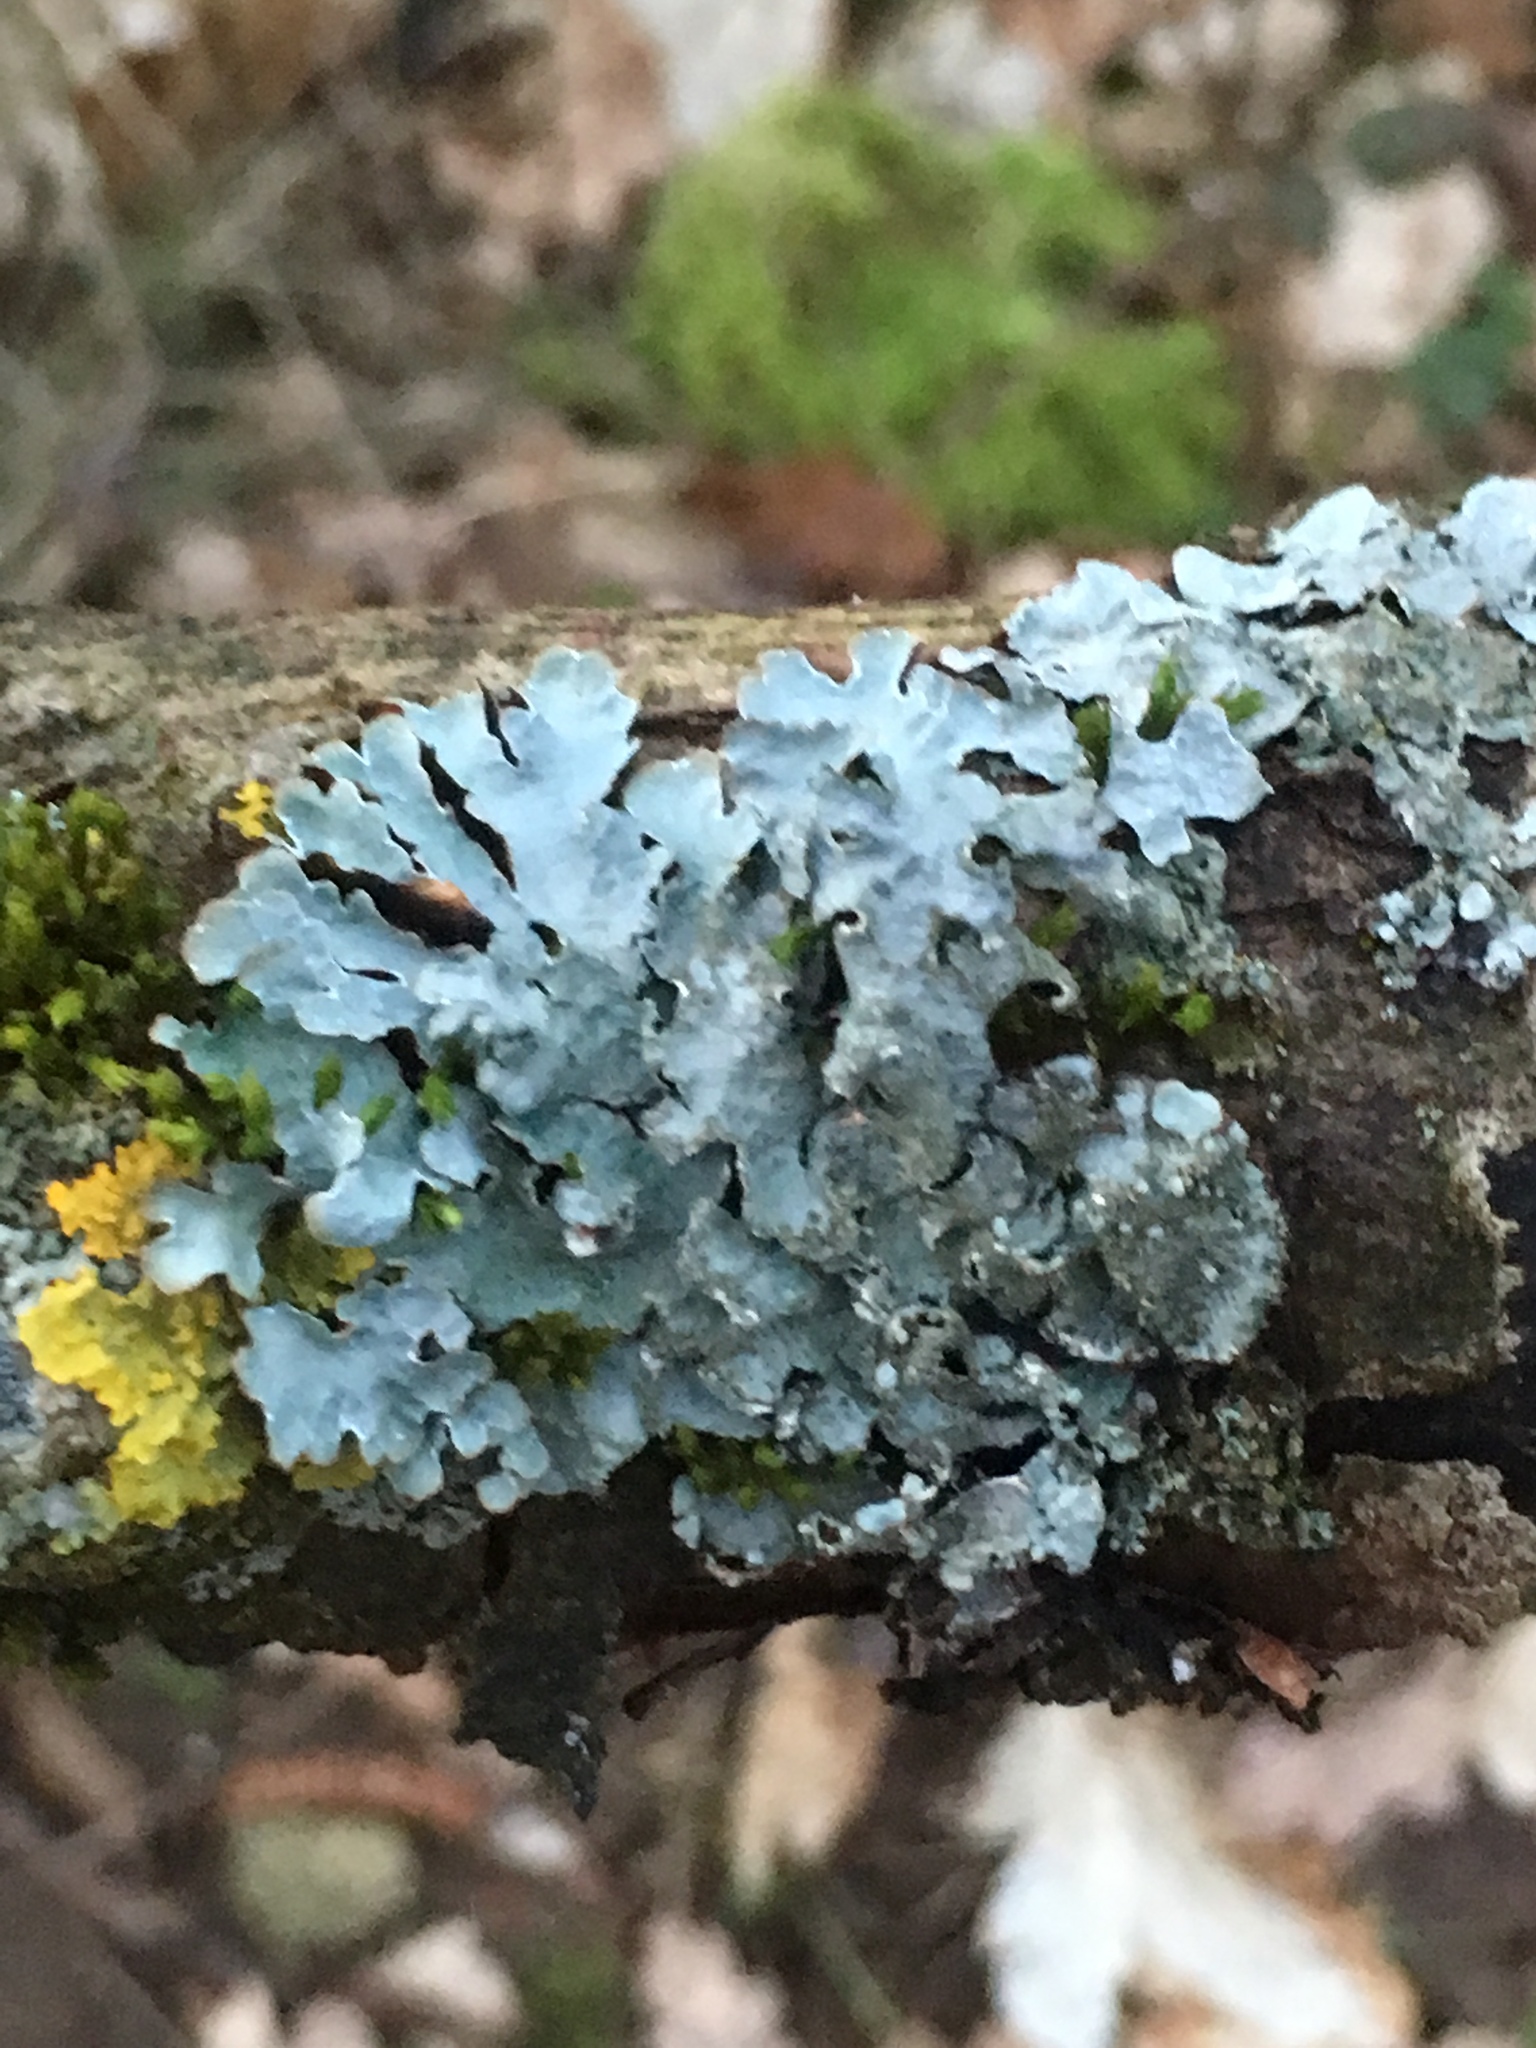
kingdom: Fungi
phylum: Ascomycota
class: Lecanoromycetes
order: Lecanorales
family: Parmeliaceae
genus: Parmelia
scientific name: Parmelia sulcata
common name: Netted shield lichen
